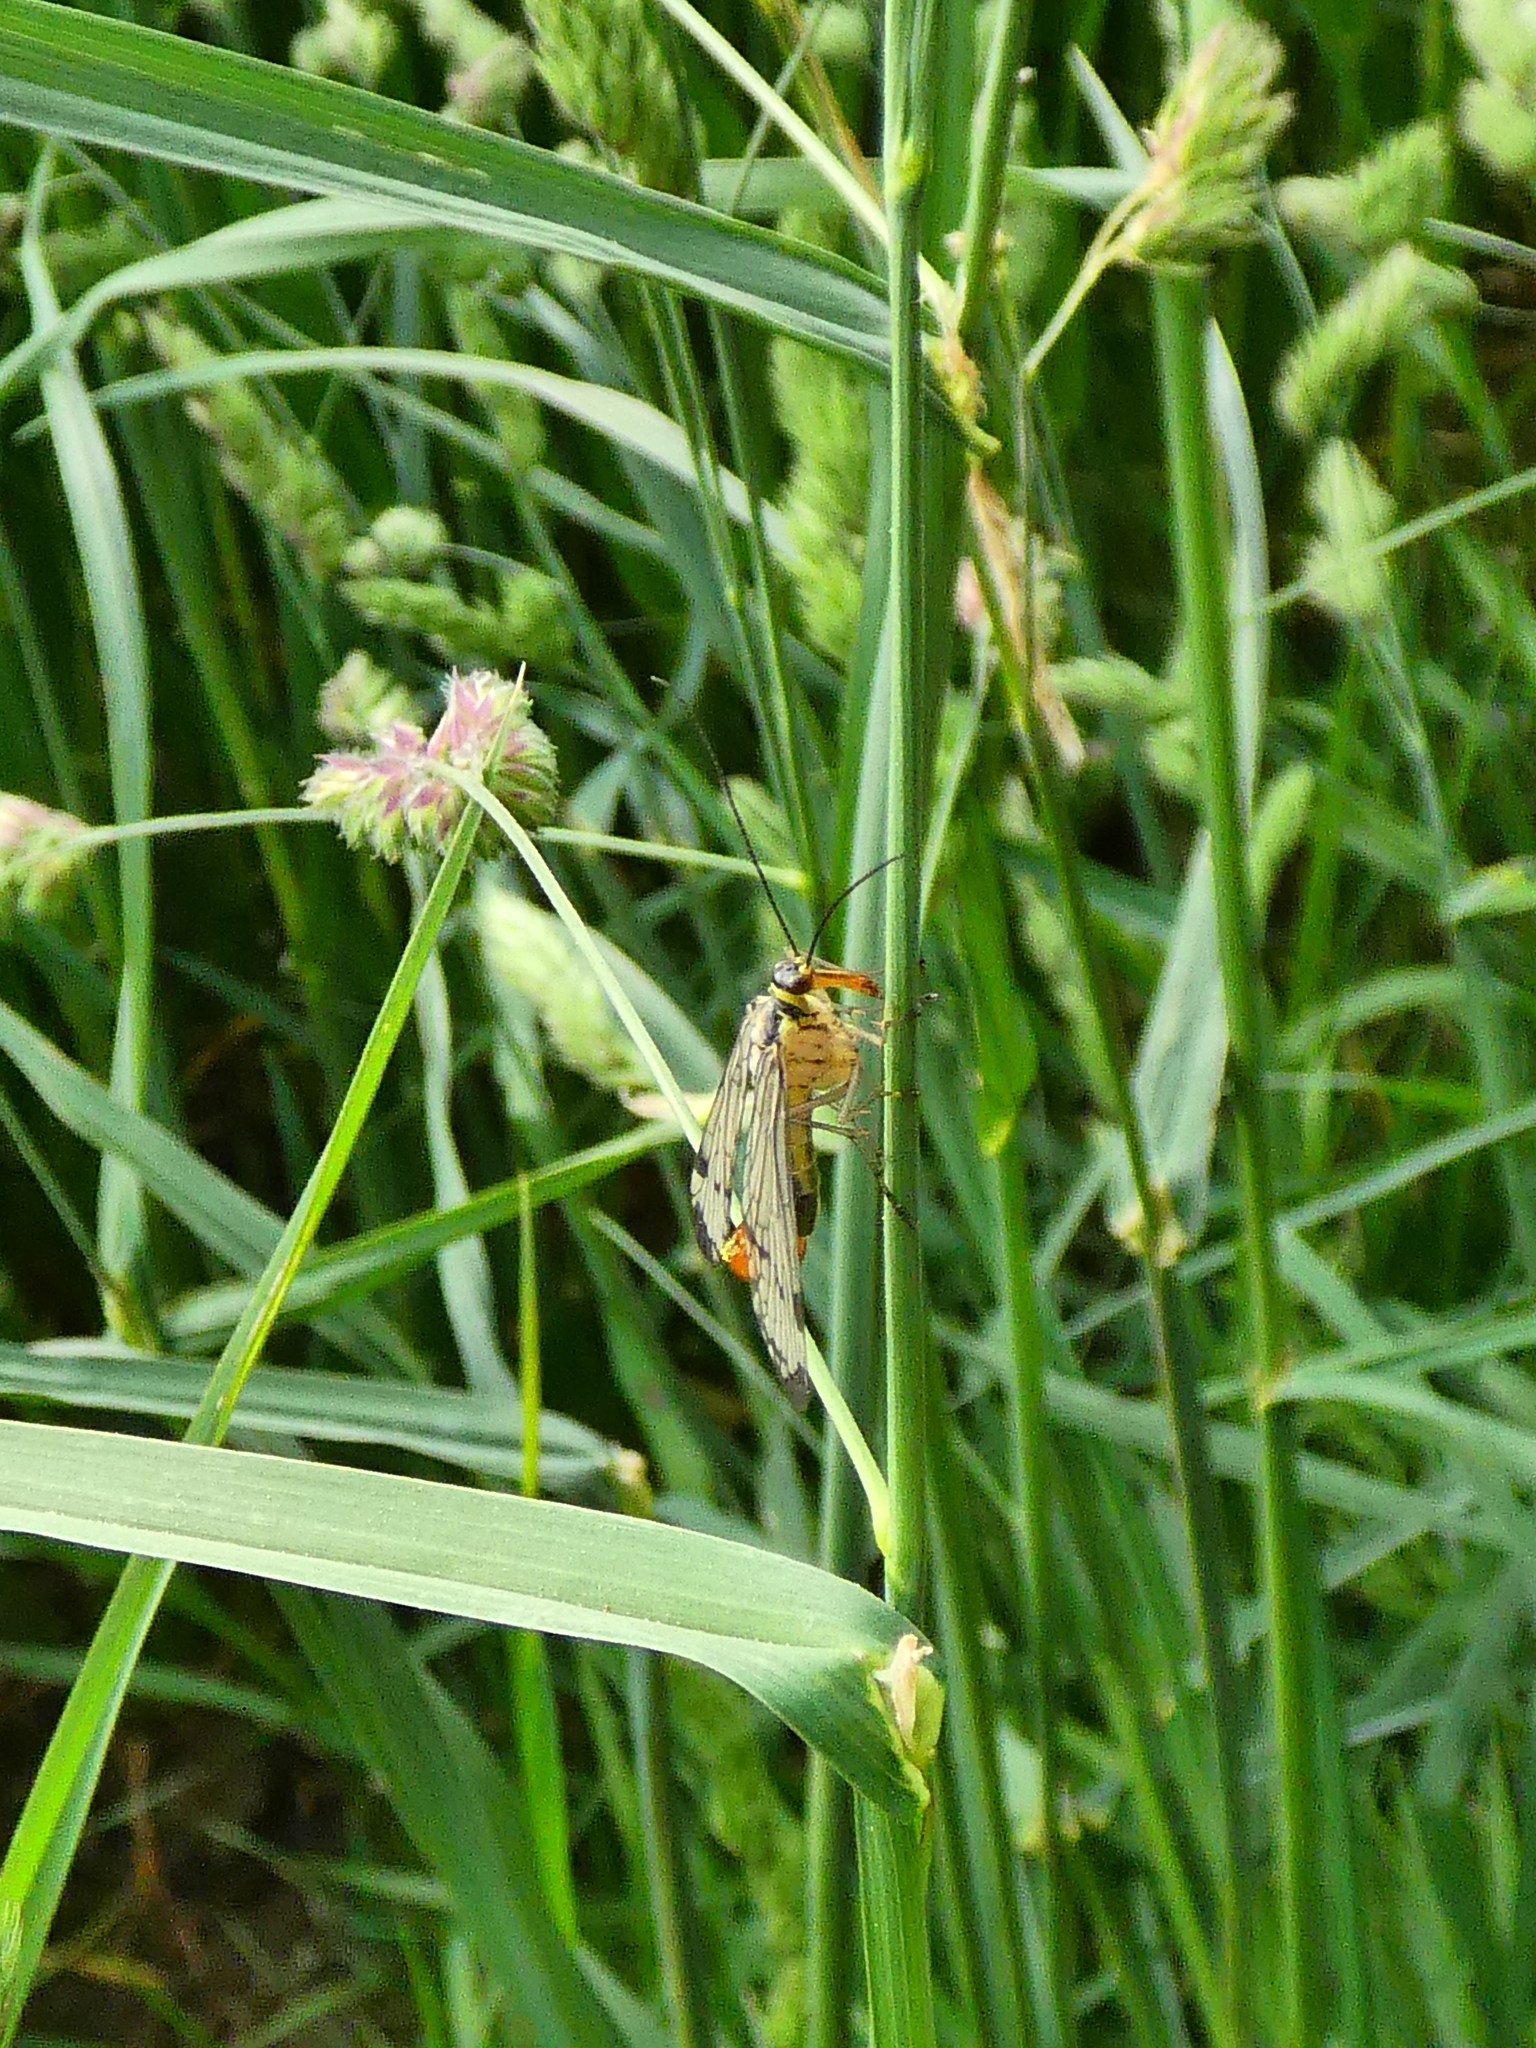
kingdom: Animalia
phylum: Arthropoda
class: Insecta
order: Mecoptera
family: Panorpidae
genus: Panorpa
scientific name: Panorpa germanica
